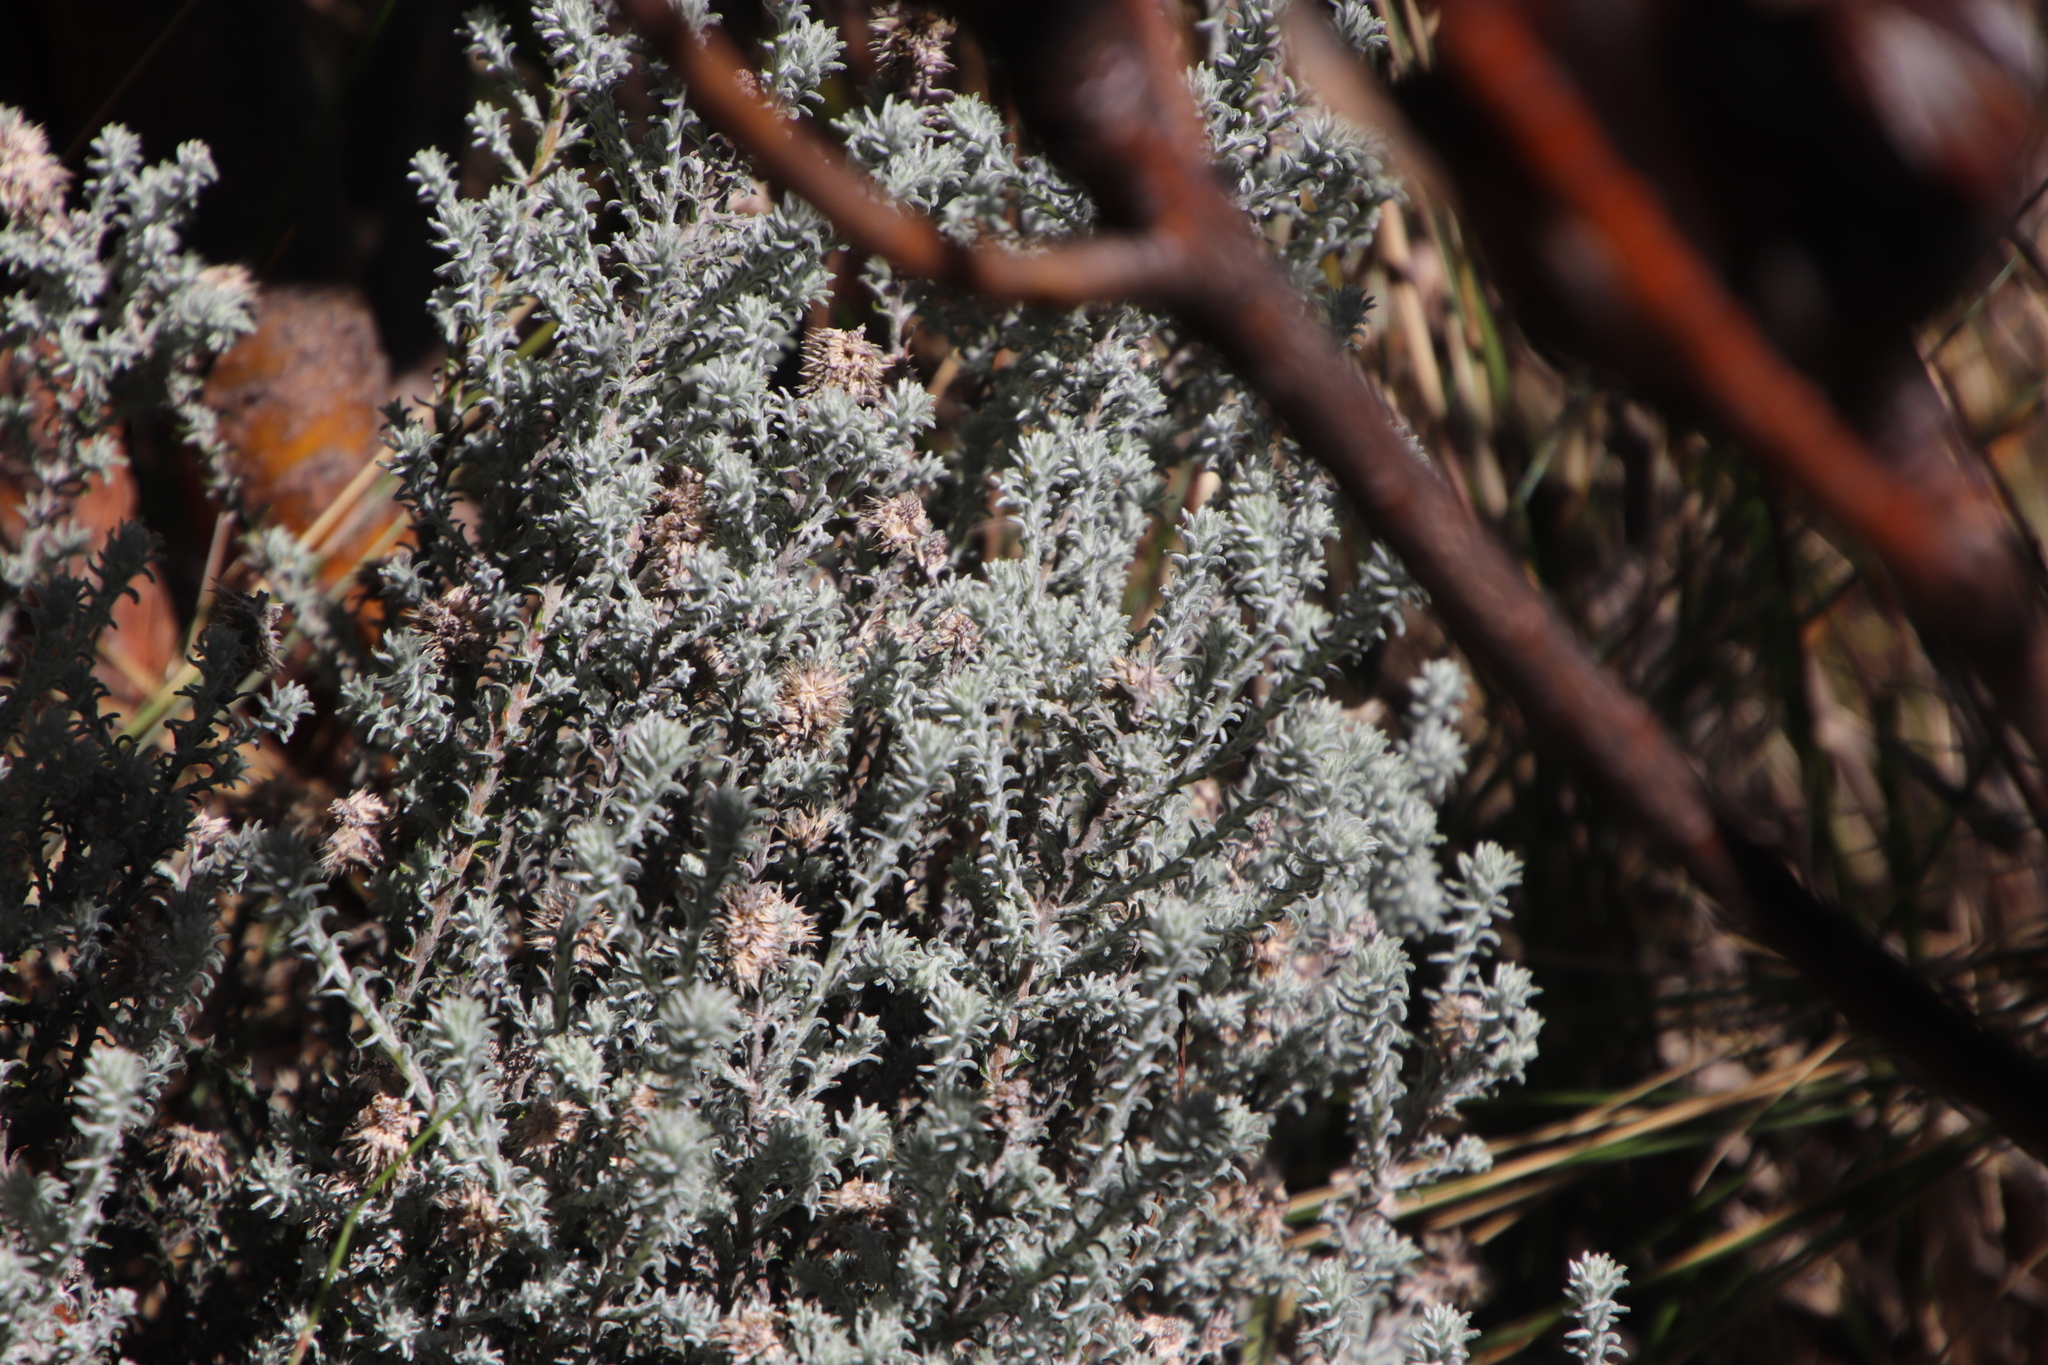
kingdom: Plantae
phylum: Tracheophyta
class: Magnoliopsida
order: Asterales
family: Asteraceae
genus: Seriphium
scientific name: Seriphium spirale
